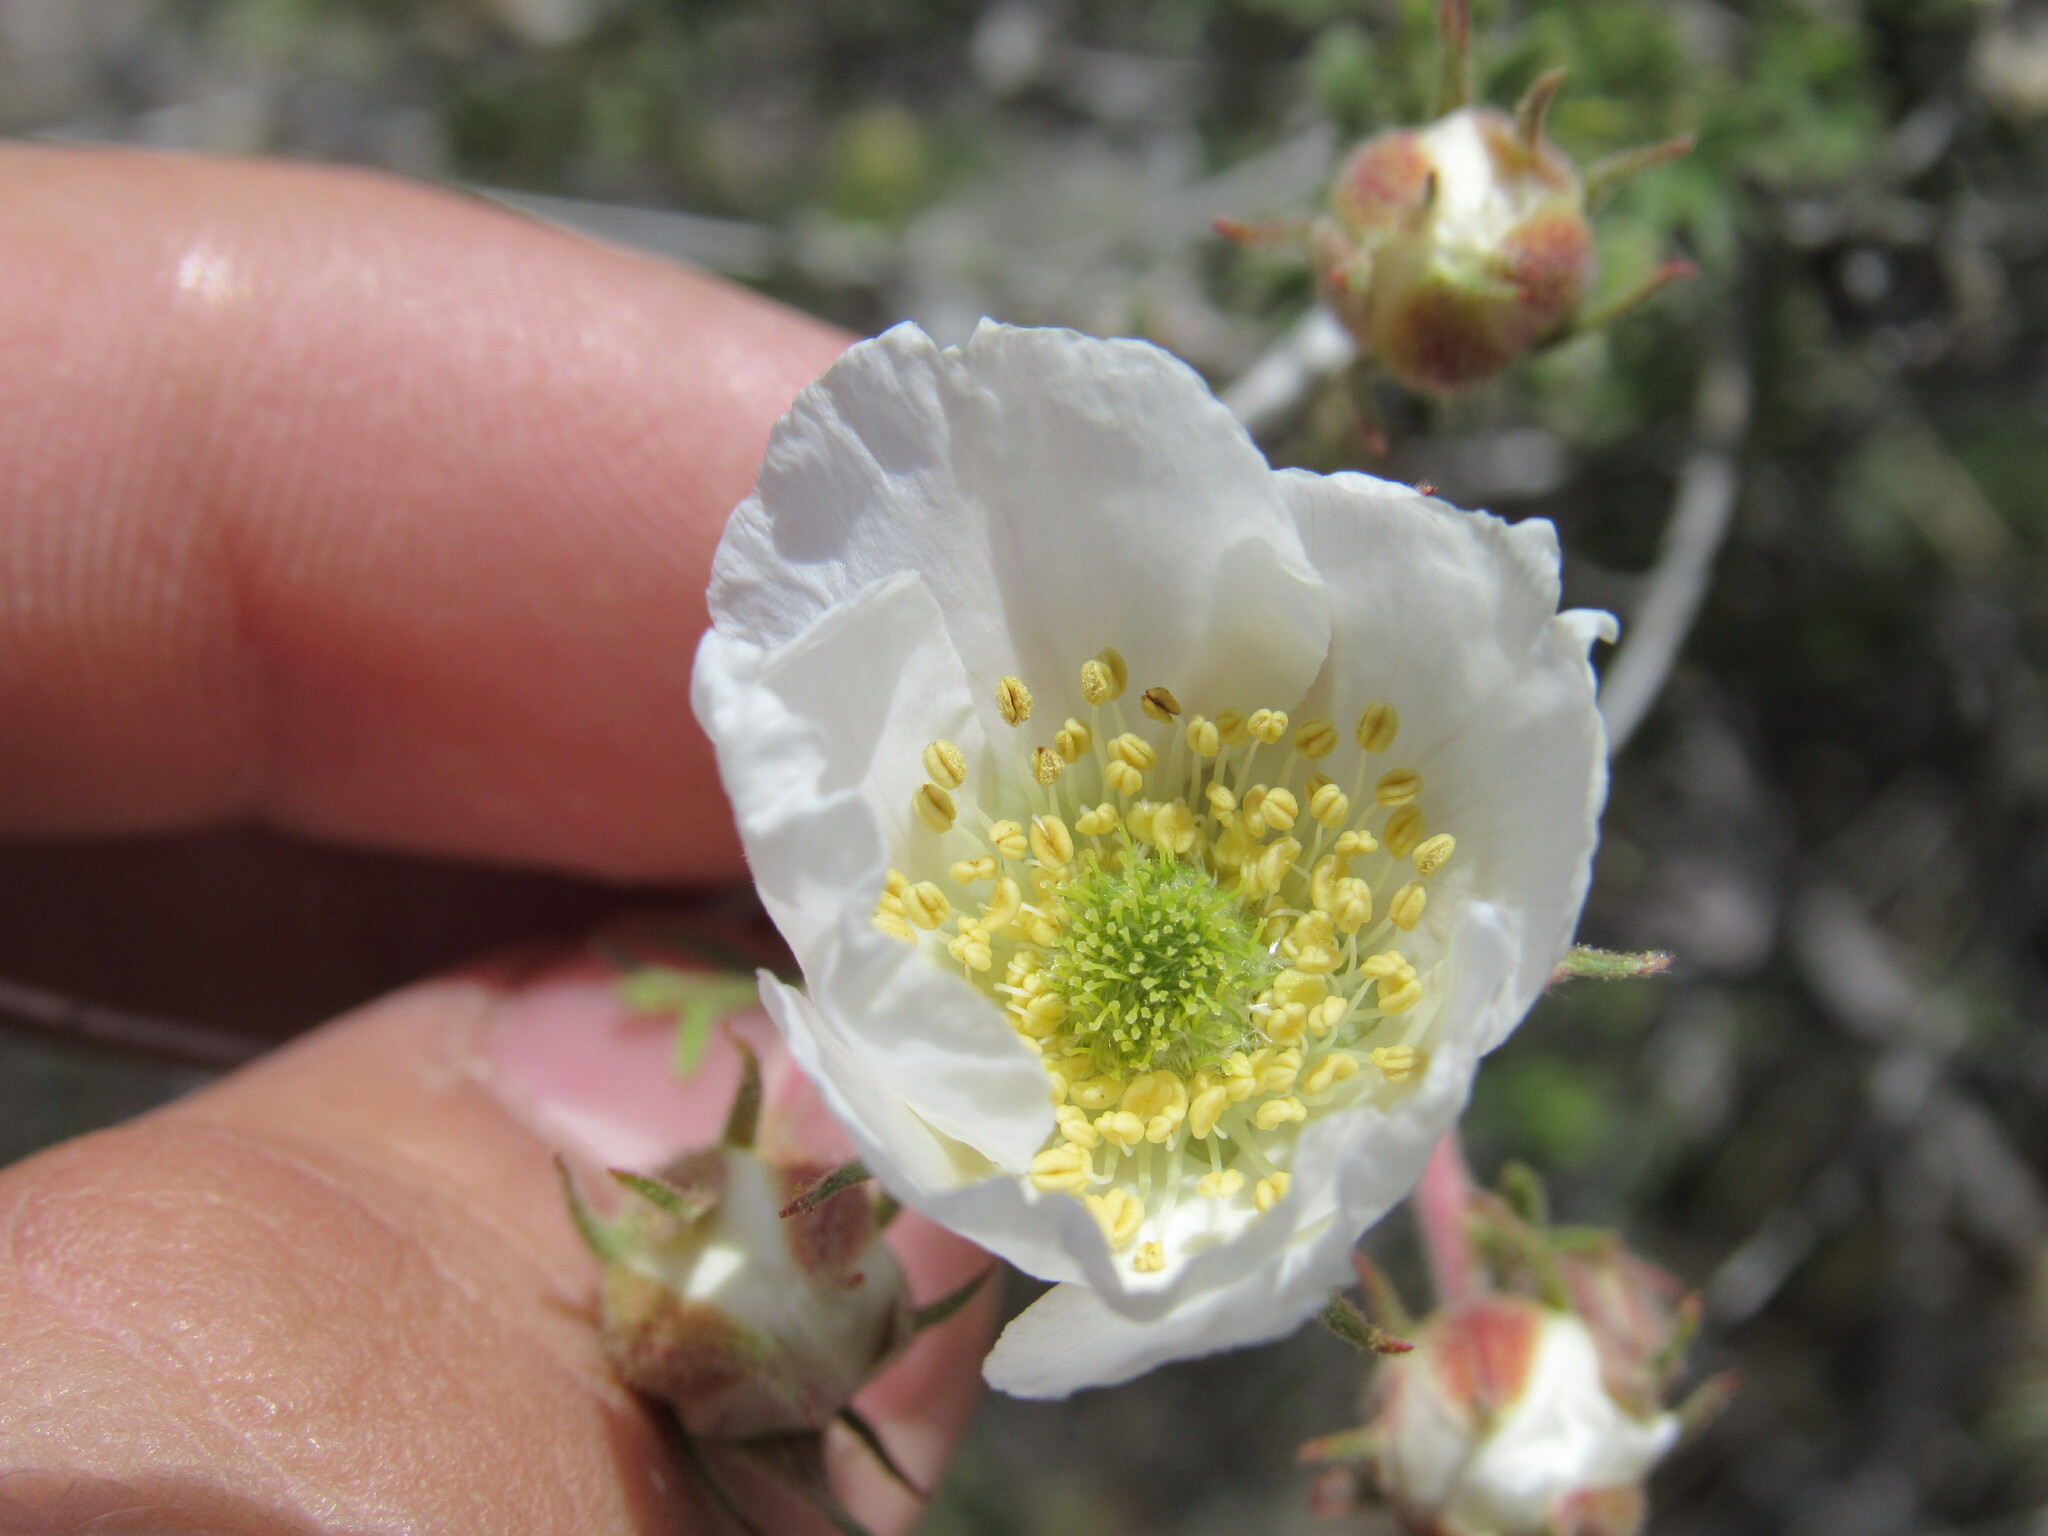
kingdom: Plantae
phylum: Tracheophyta
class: Magnoliopsida
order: Rosales
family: Rosaceae
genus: Fallugia
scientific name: Fallugia paradoxa
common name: Apache-plume
